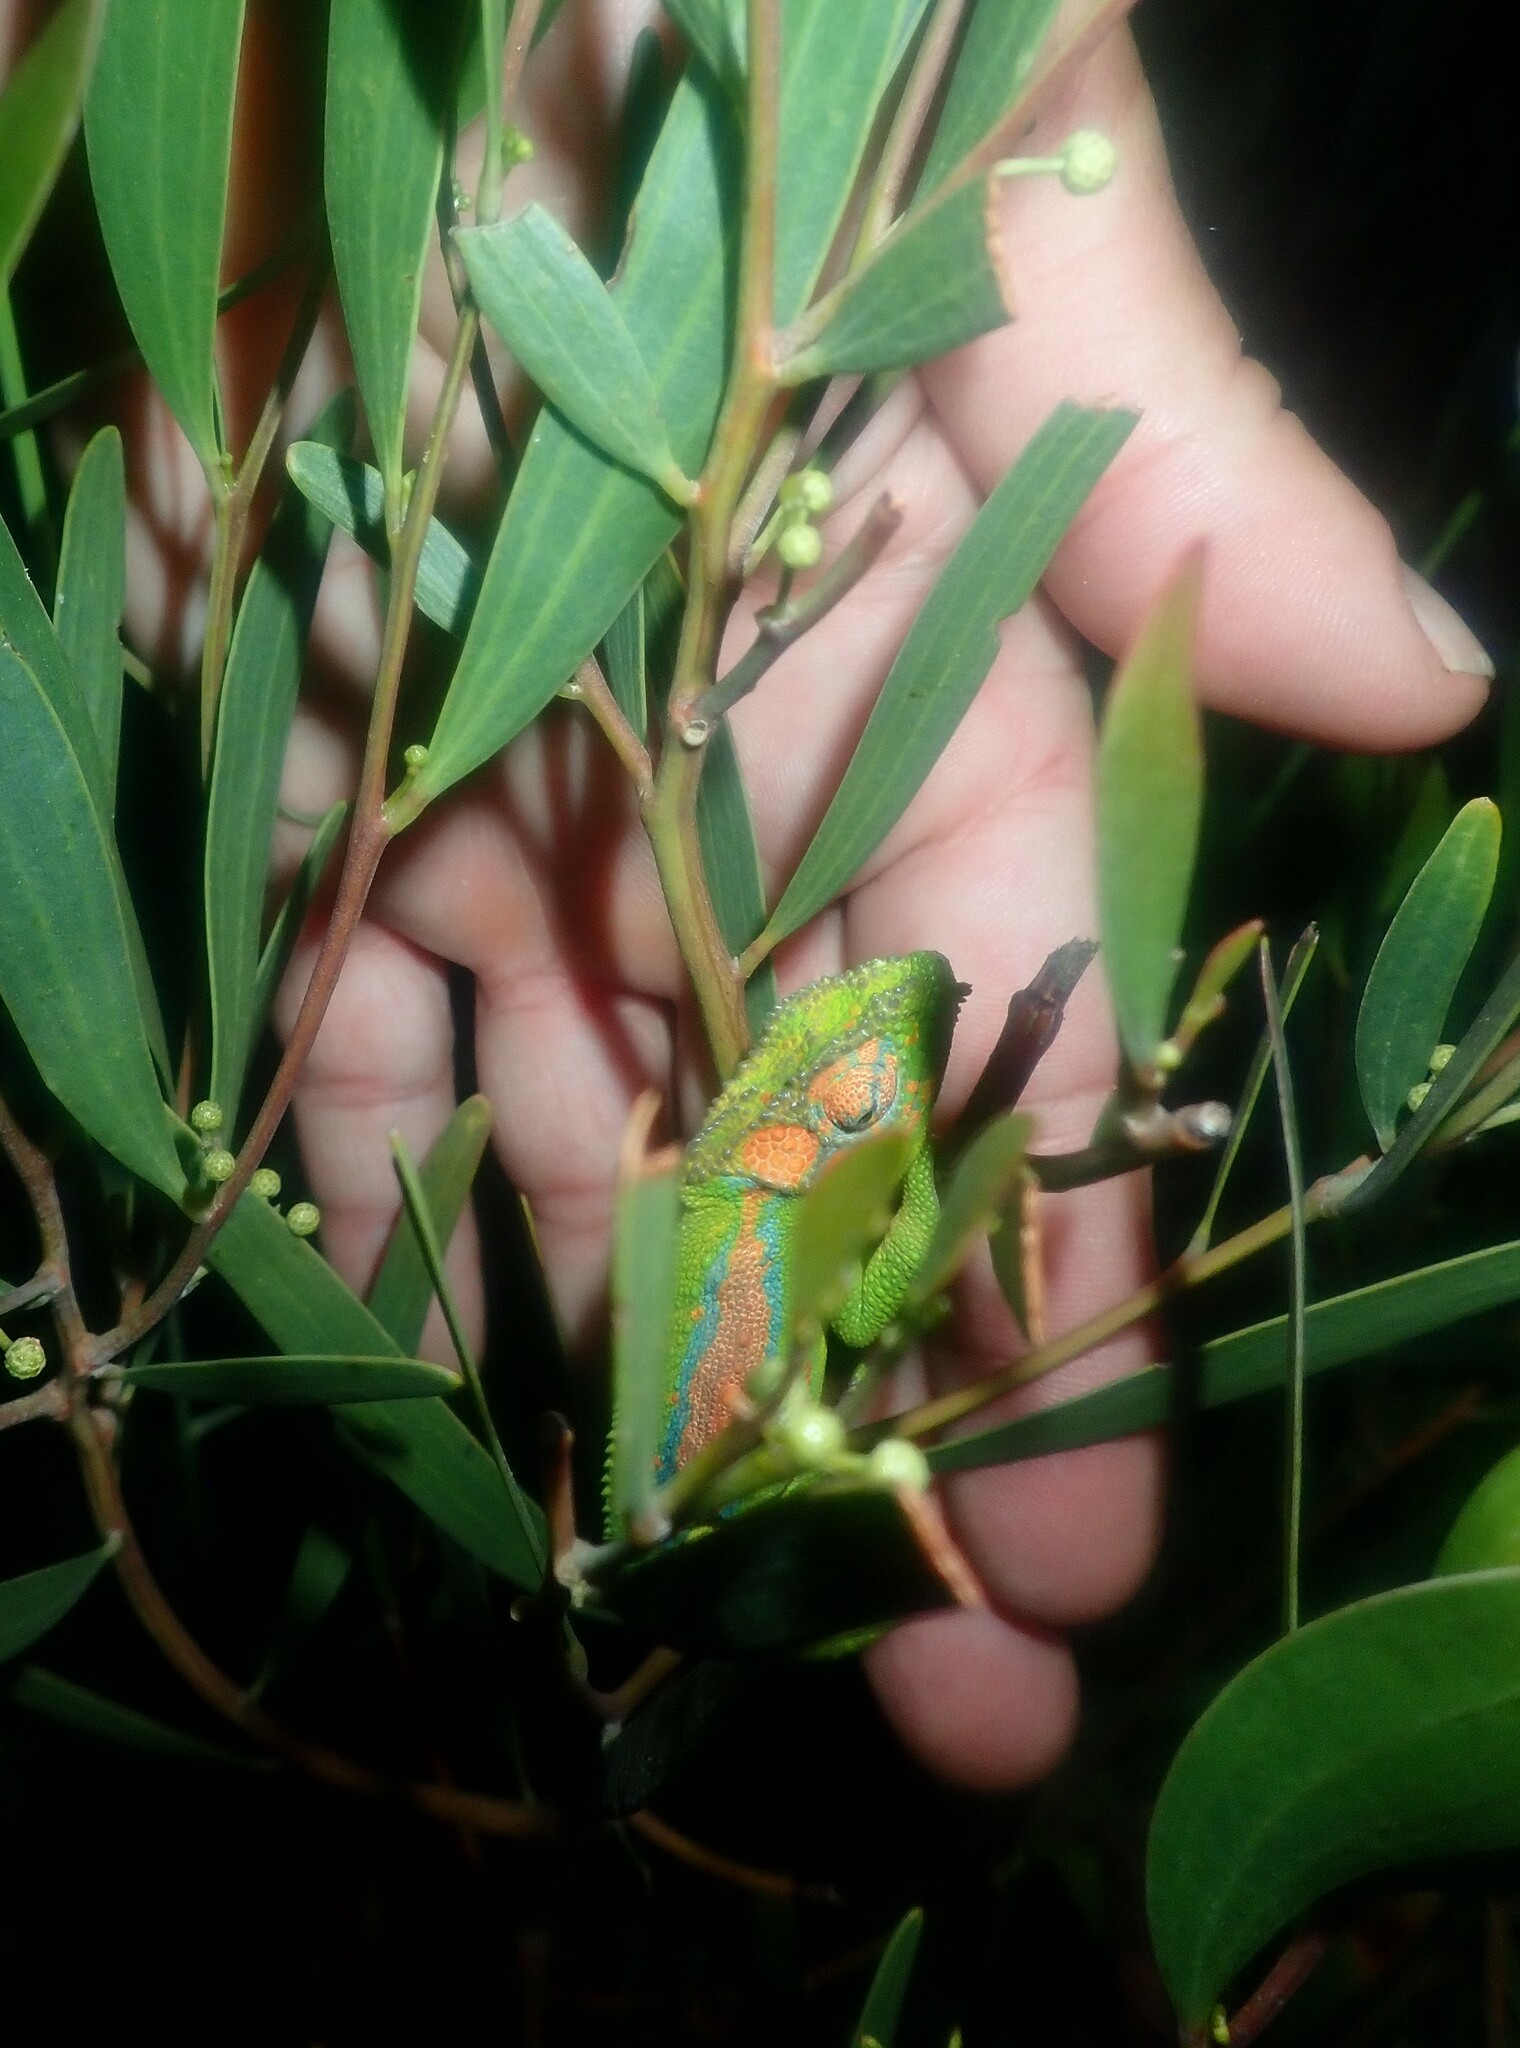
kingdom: Animalia
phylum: Chordata
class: Squamata
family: Chamaeleonidae
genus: Bradypodion
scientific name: Bradypodion pumilum
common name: Cape dwarf chameleon
